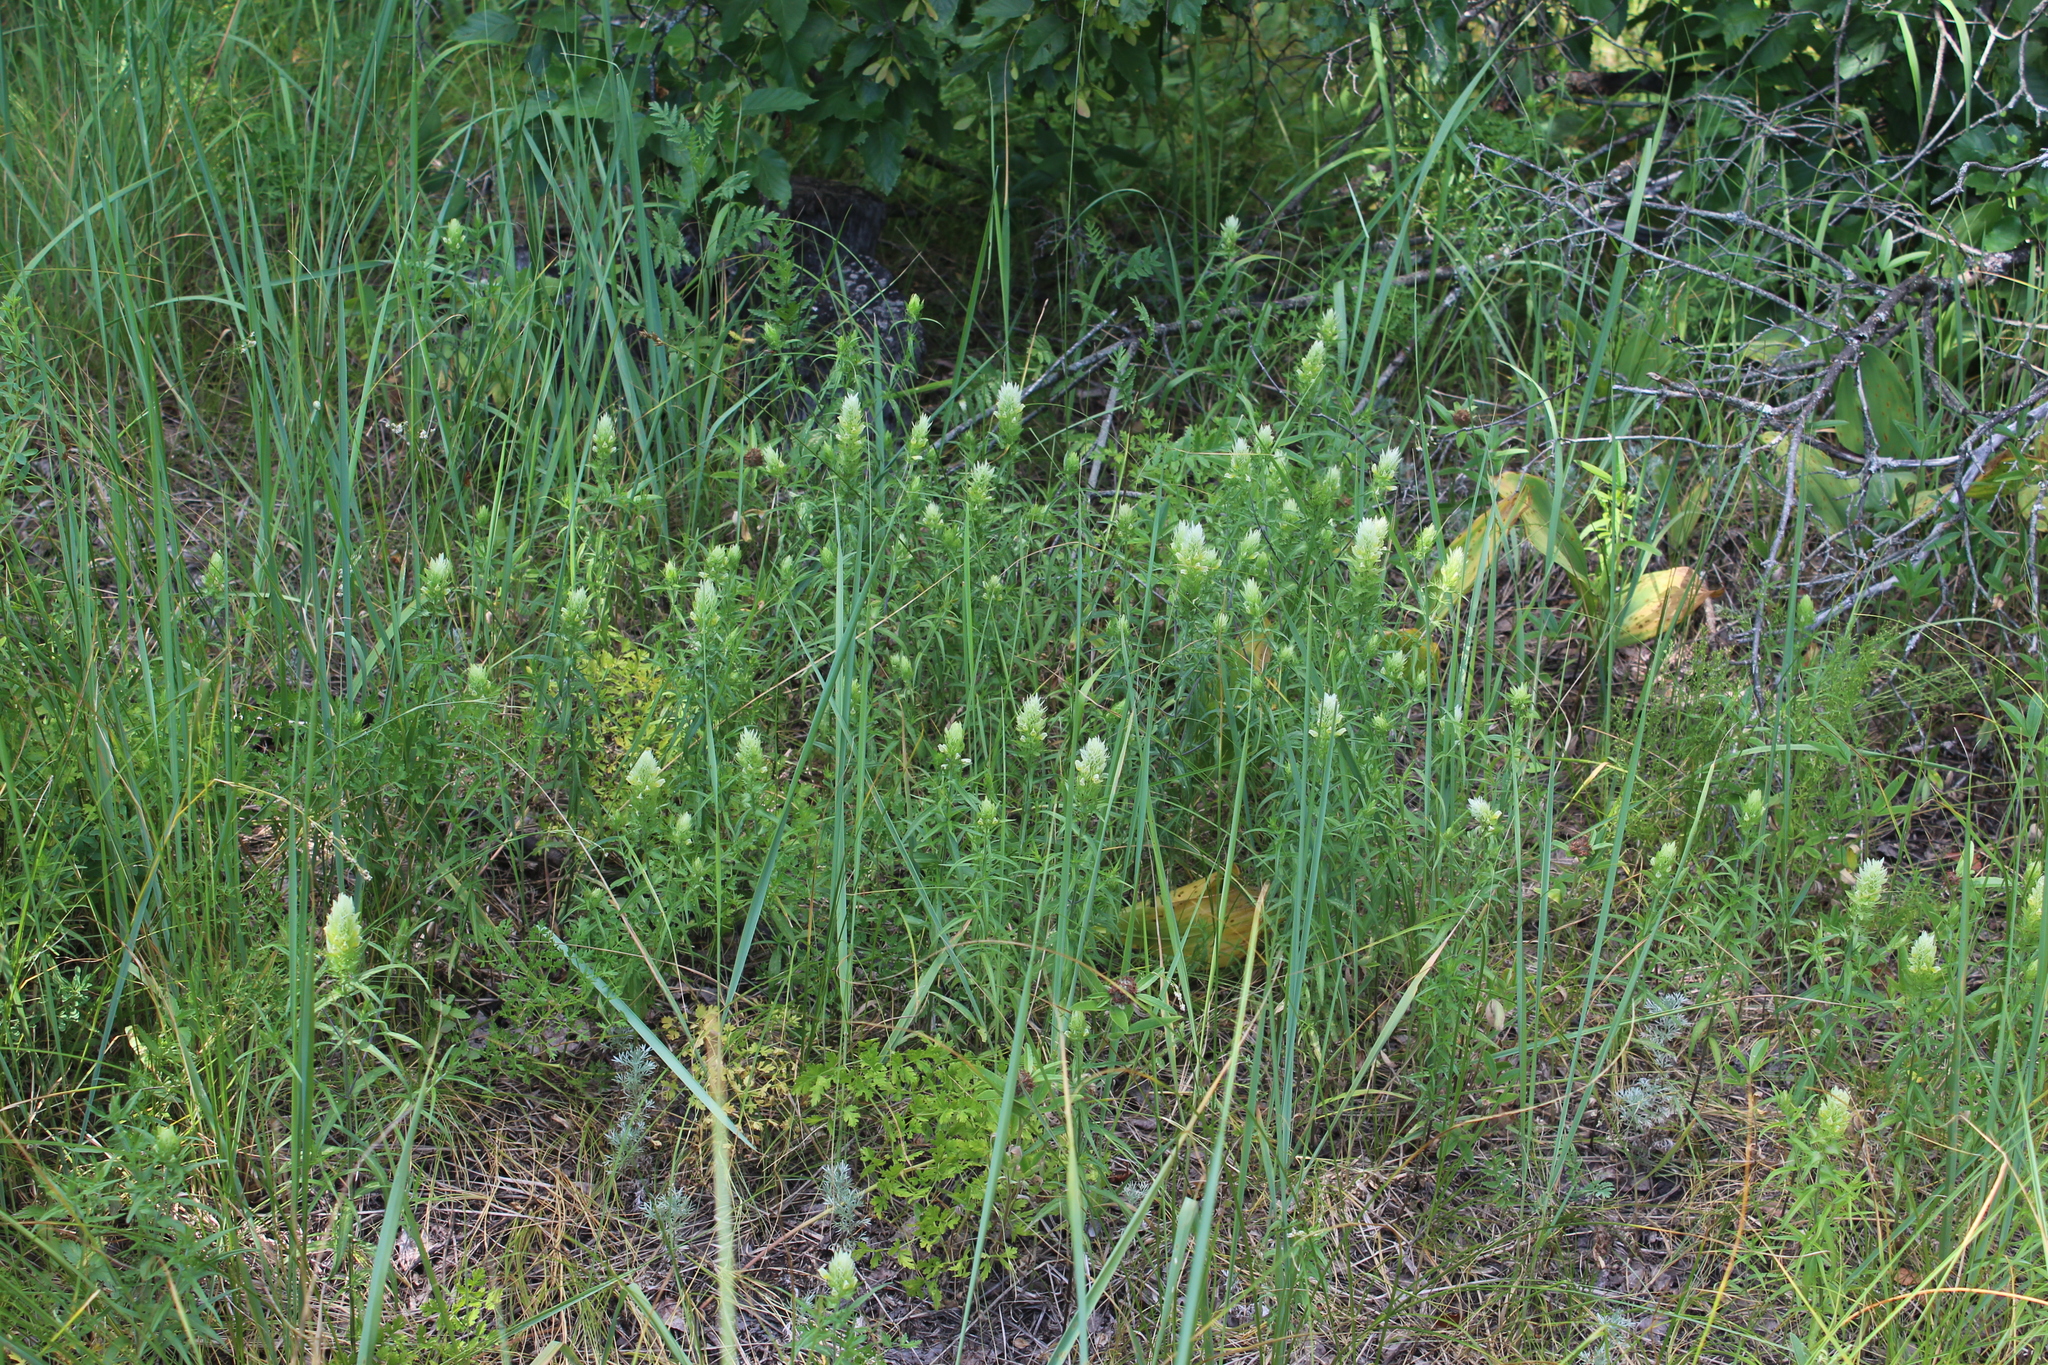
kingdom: Plantae
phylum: Tracheophyta
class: Magnoliopsida
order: Lamiales
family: Orobanchaceae
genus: Melampyrum
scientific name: Melampyrum arvense
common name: Field cow-wheat
